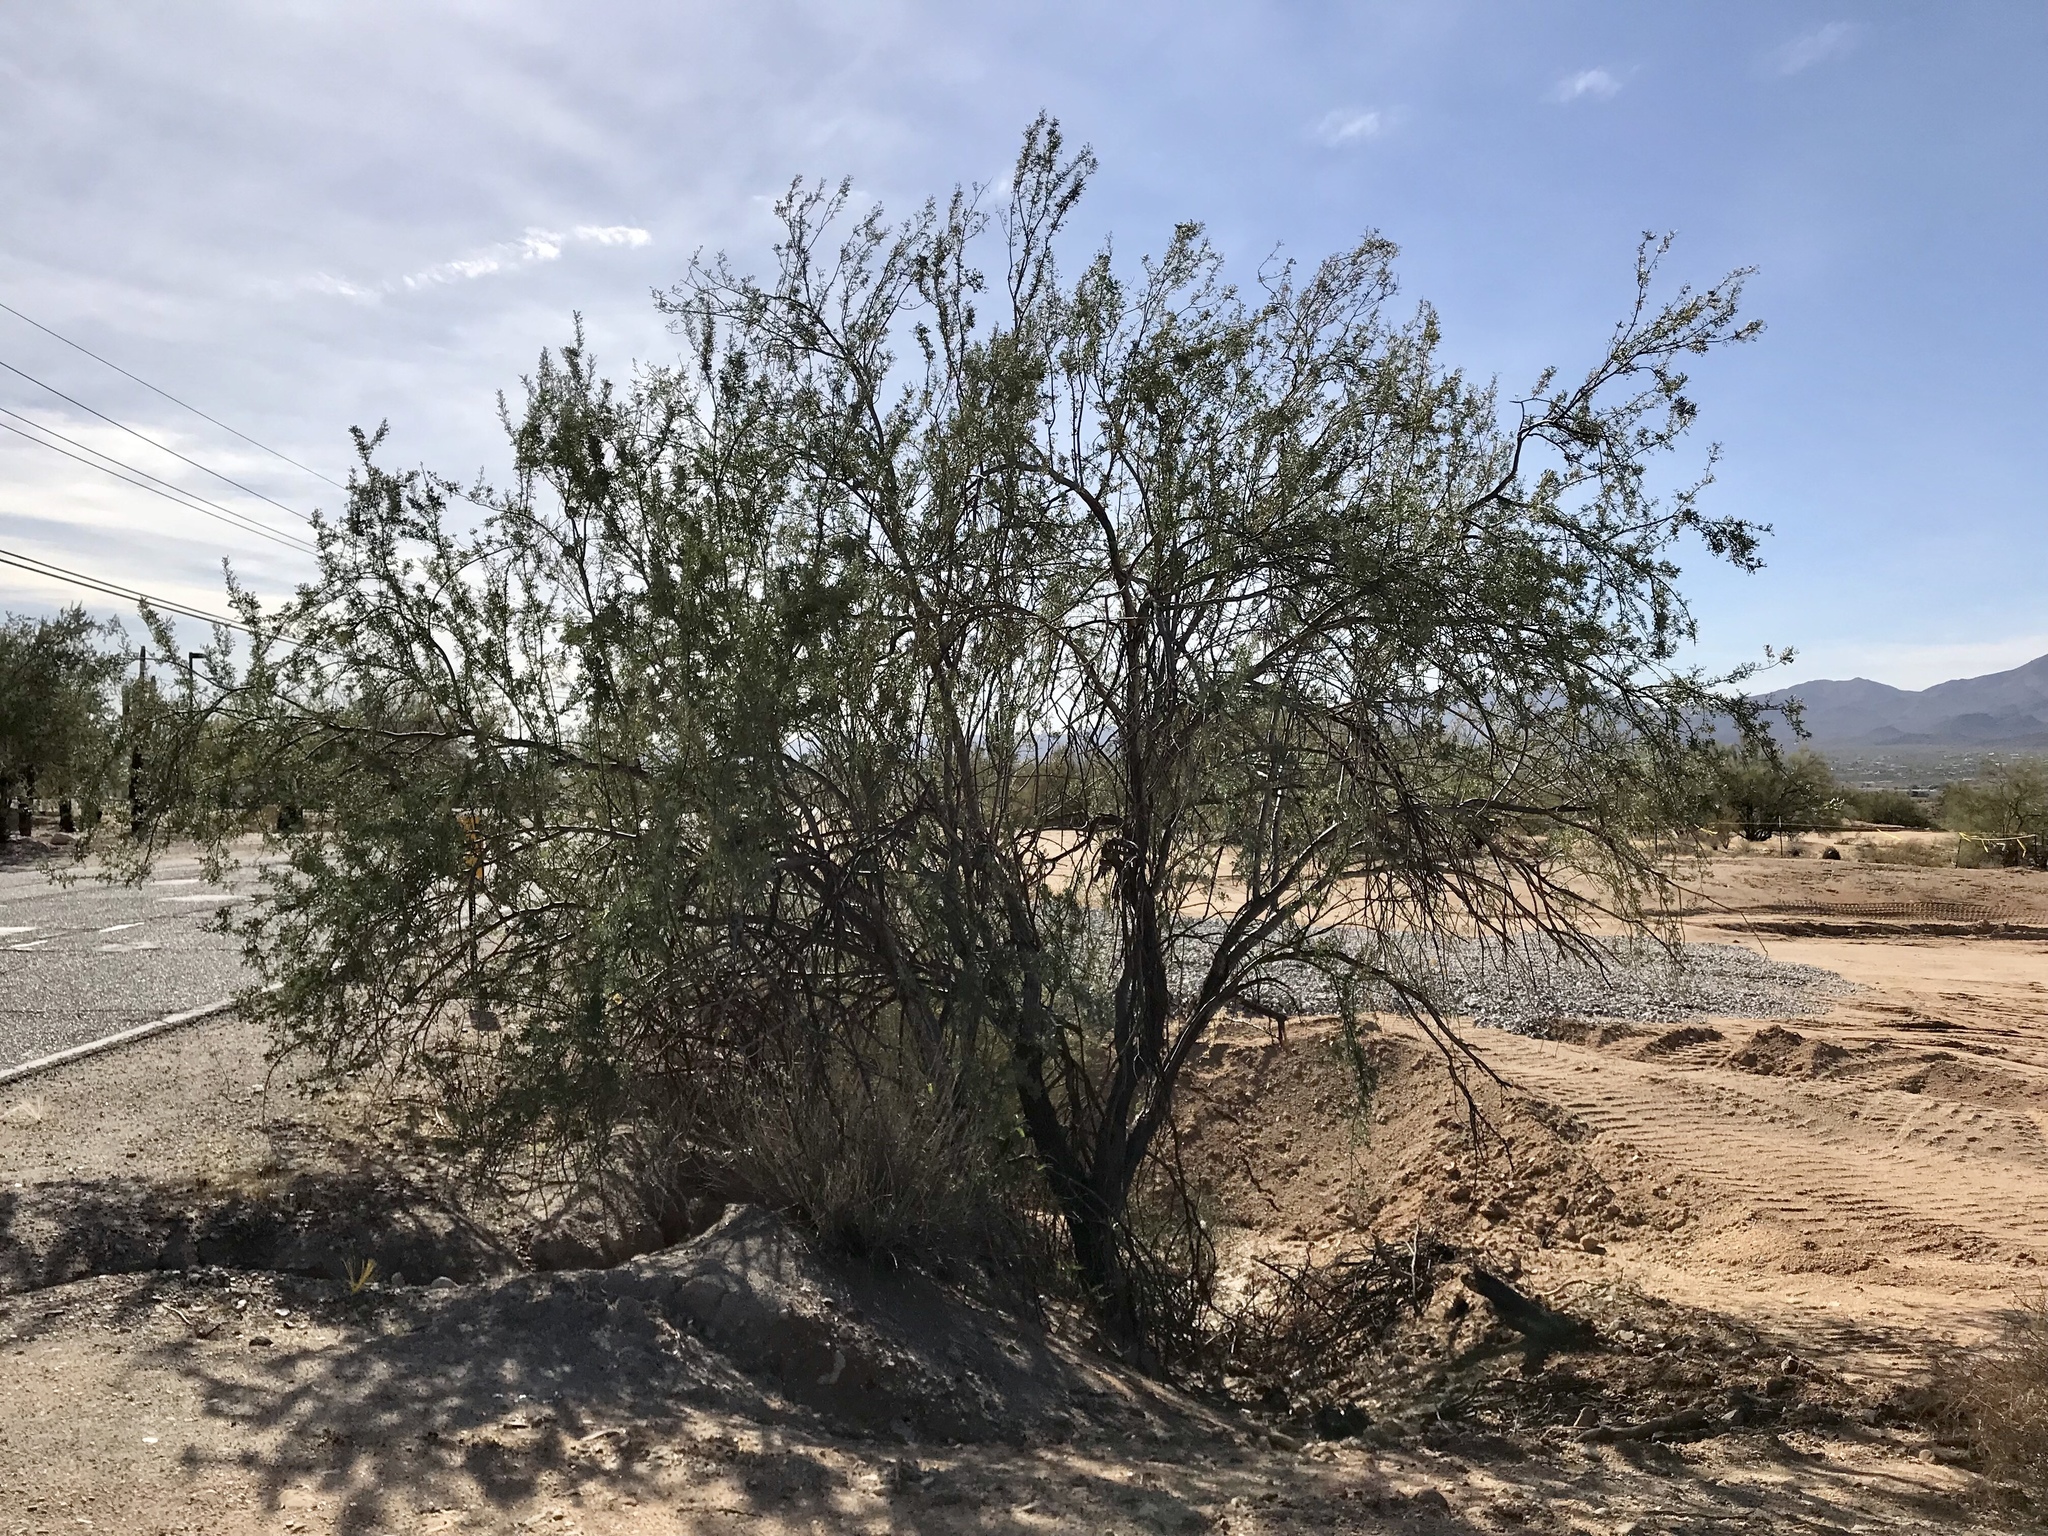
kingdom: Plantae
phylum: Tracheophyta
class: Magnoliopsida
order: Fabales
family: Fabaceae
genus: Olneya
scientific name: Olneya tesota
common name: Desert ironwood
